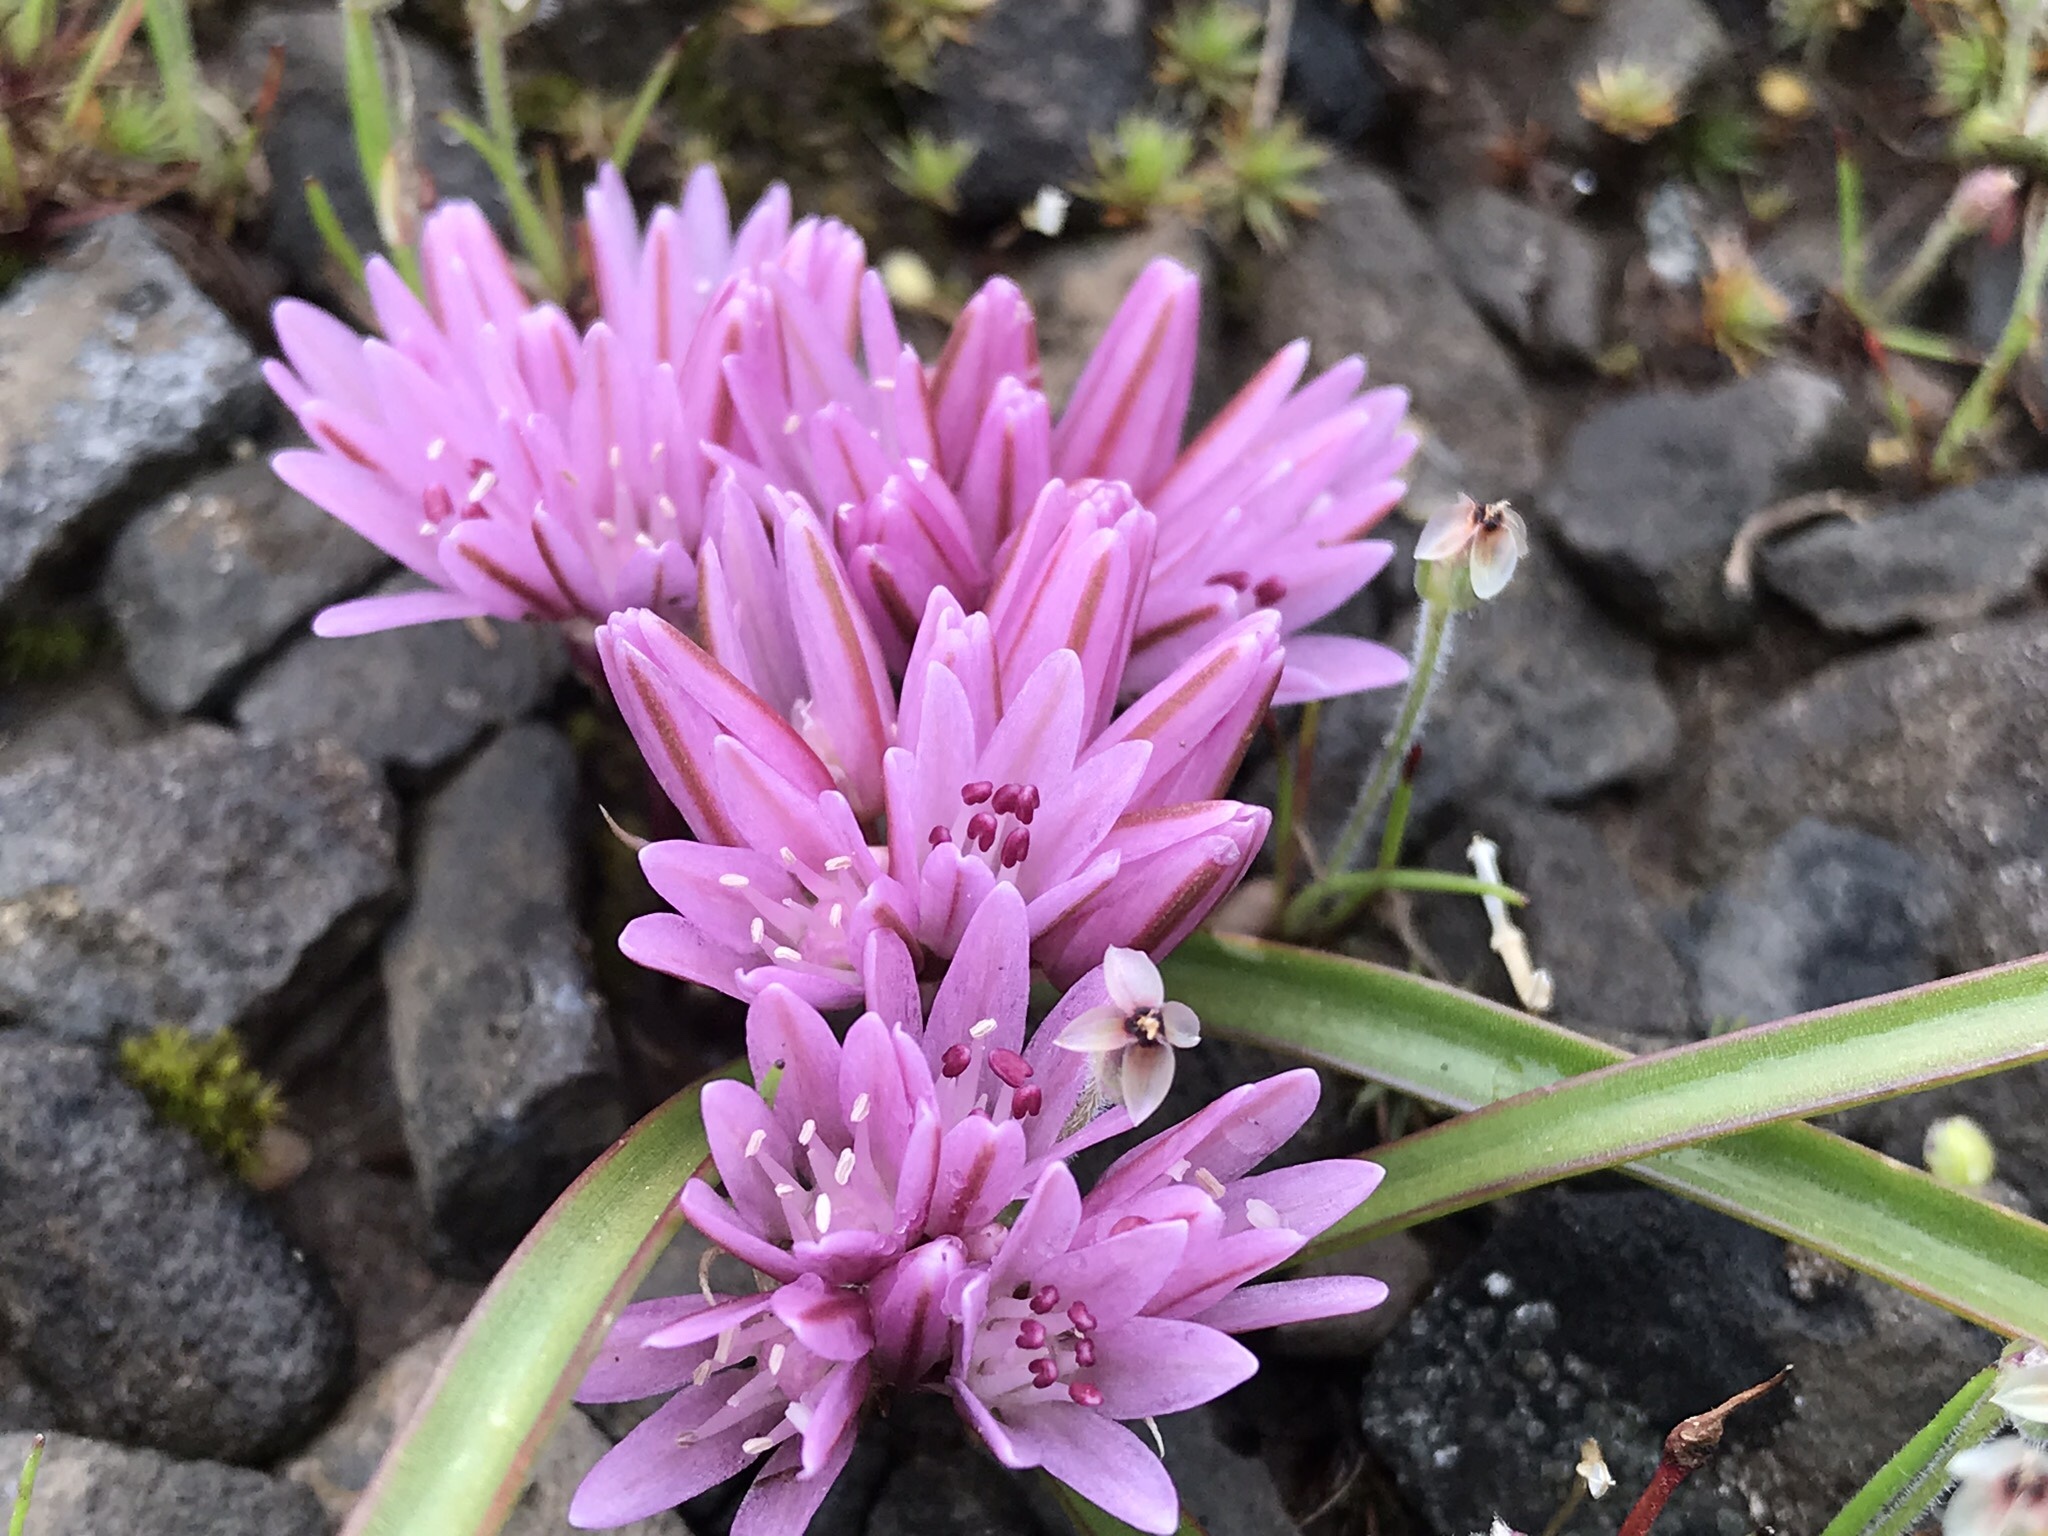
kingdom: Plantae
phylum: Tracheophyta
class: Liliopsida
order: Asparagales
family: Amaryllidaceae
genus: Allium
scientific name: Allium cratericola
